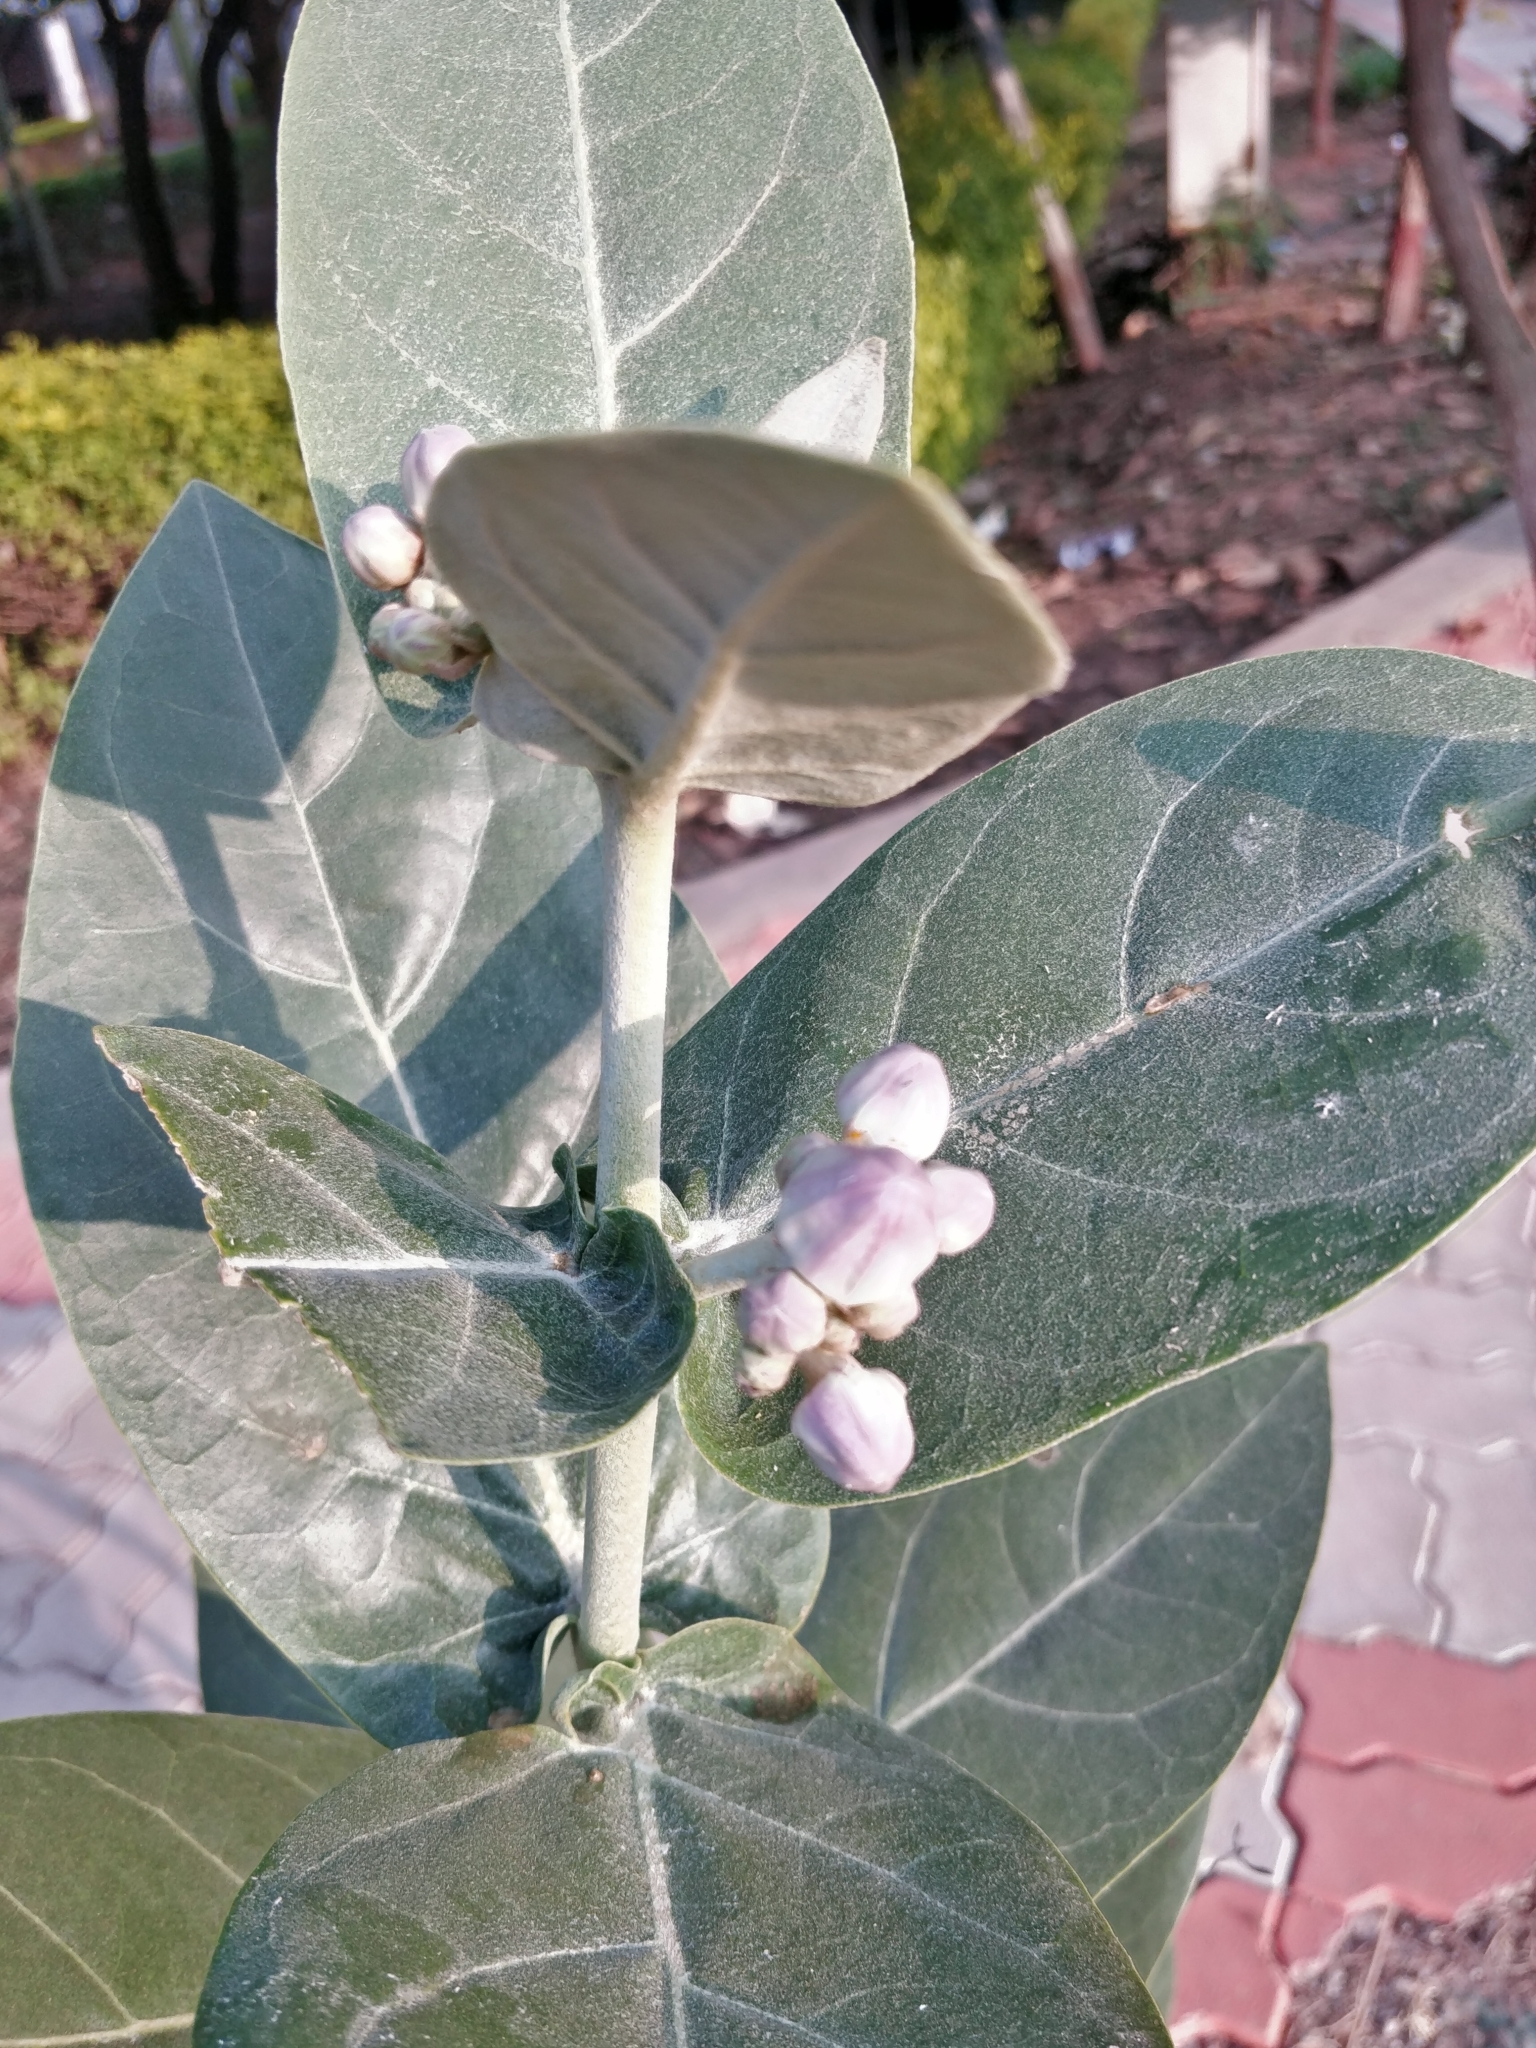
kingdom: Plantae
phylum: Tracheophyta
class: Magnoliopsida
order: Gentianales
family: Apocynaceae
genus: Calotropis
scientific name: Calotropis gigantea
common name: Crown flower
